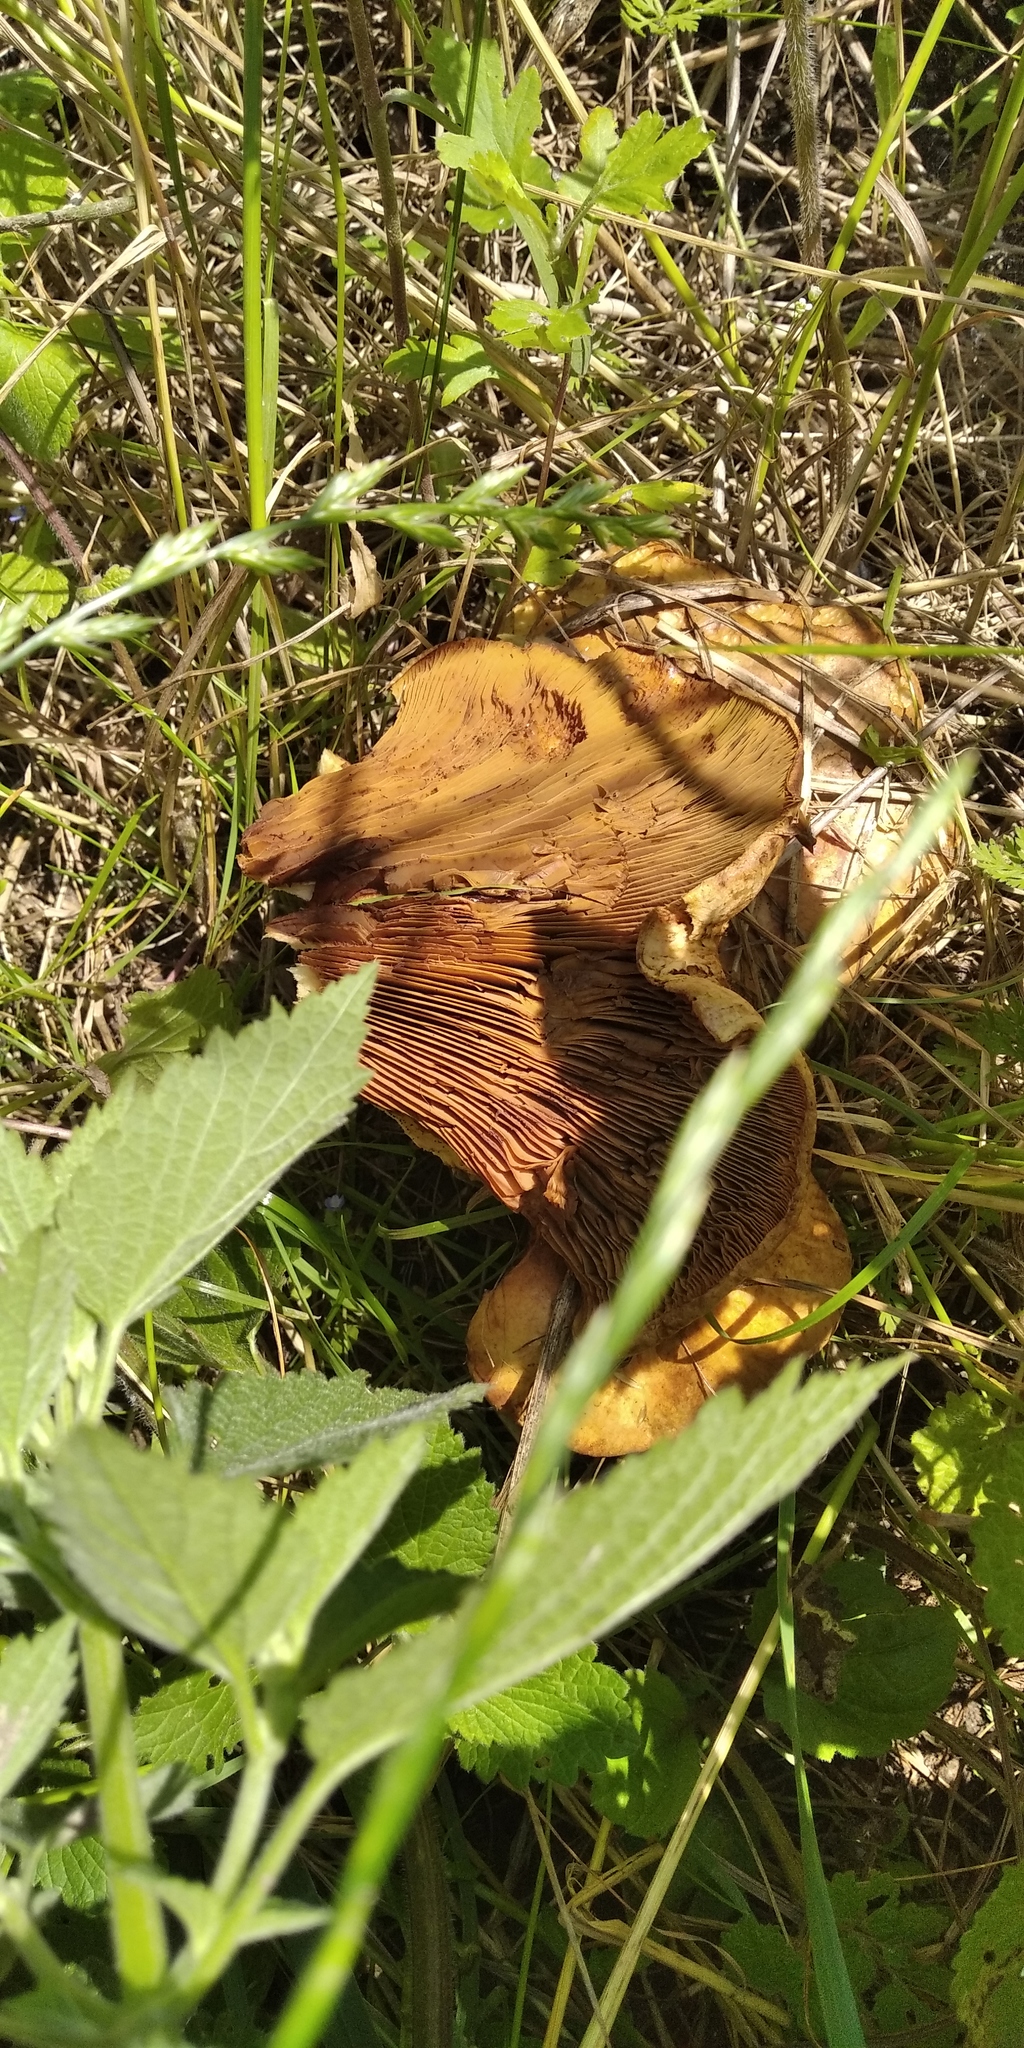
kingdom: Fungi
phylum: Basidiomycota
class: Agaricomycetes
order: Boletales
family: Paxillaceae
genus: Paxillus
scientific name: Paxillus involutus
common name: Brown roll rim
